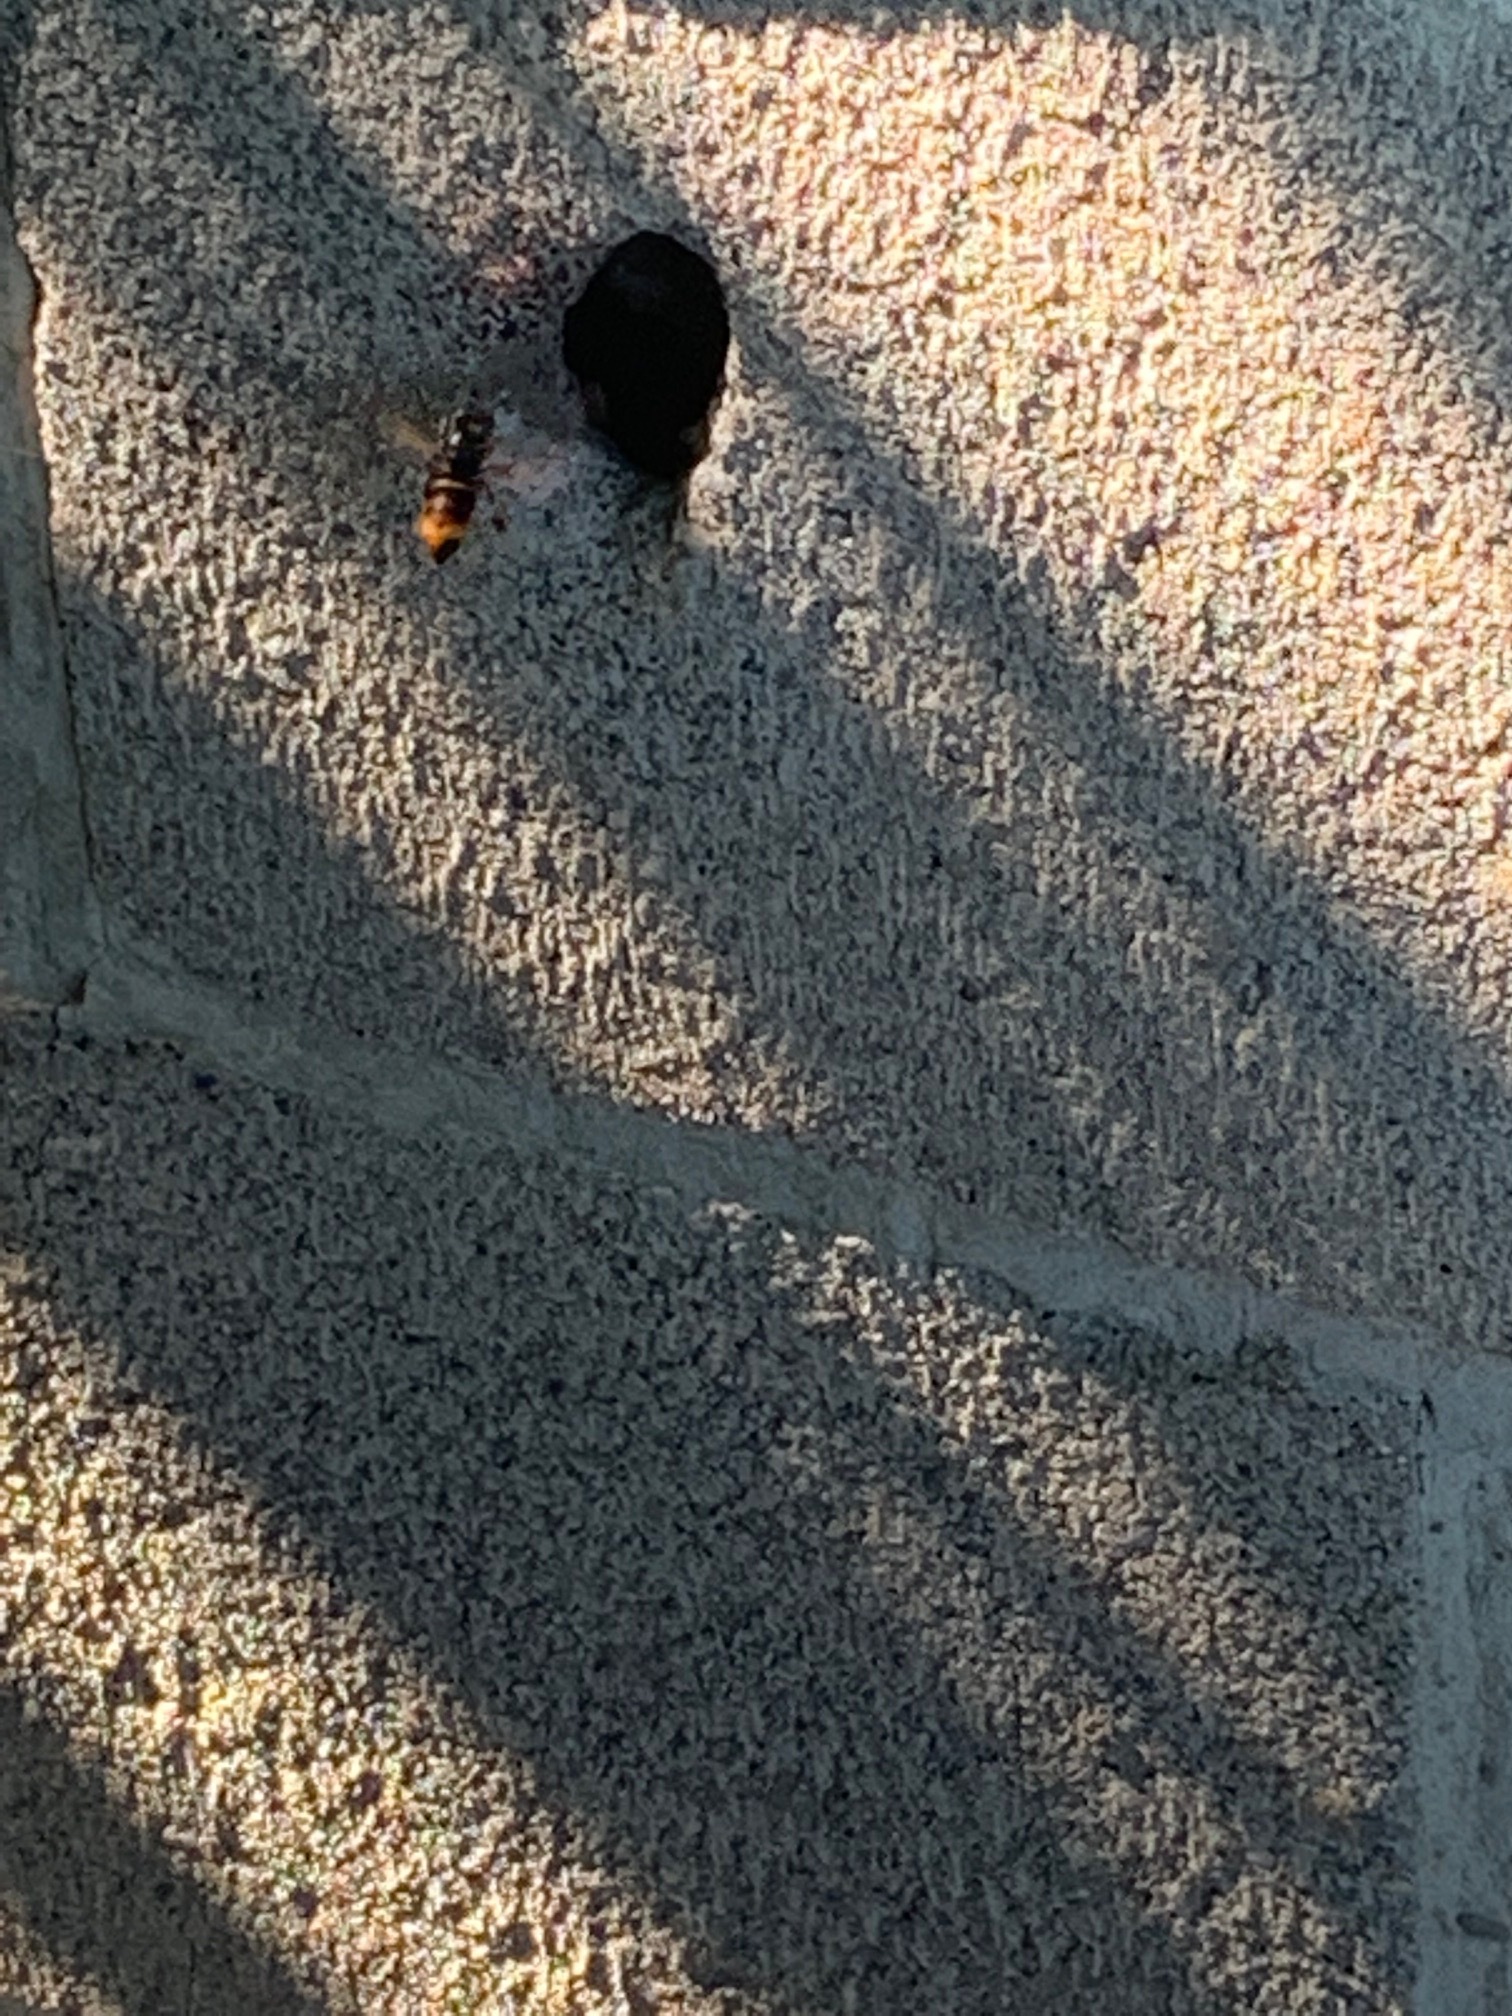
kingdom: Animalia
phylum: Arthropoda
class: Insecta
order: Hymenoptera
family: Vespidae
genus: Vespa
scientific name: Vespa velutina
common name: Asian hornet
